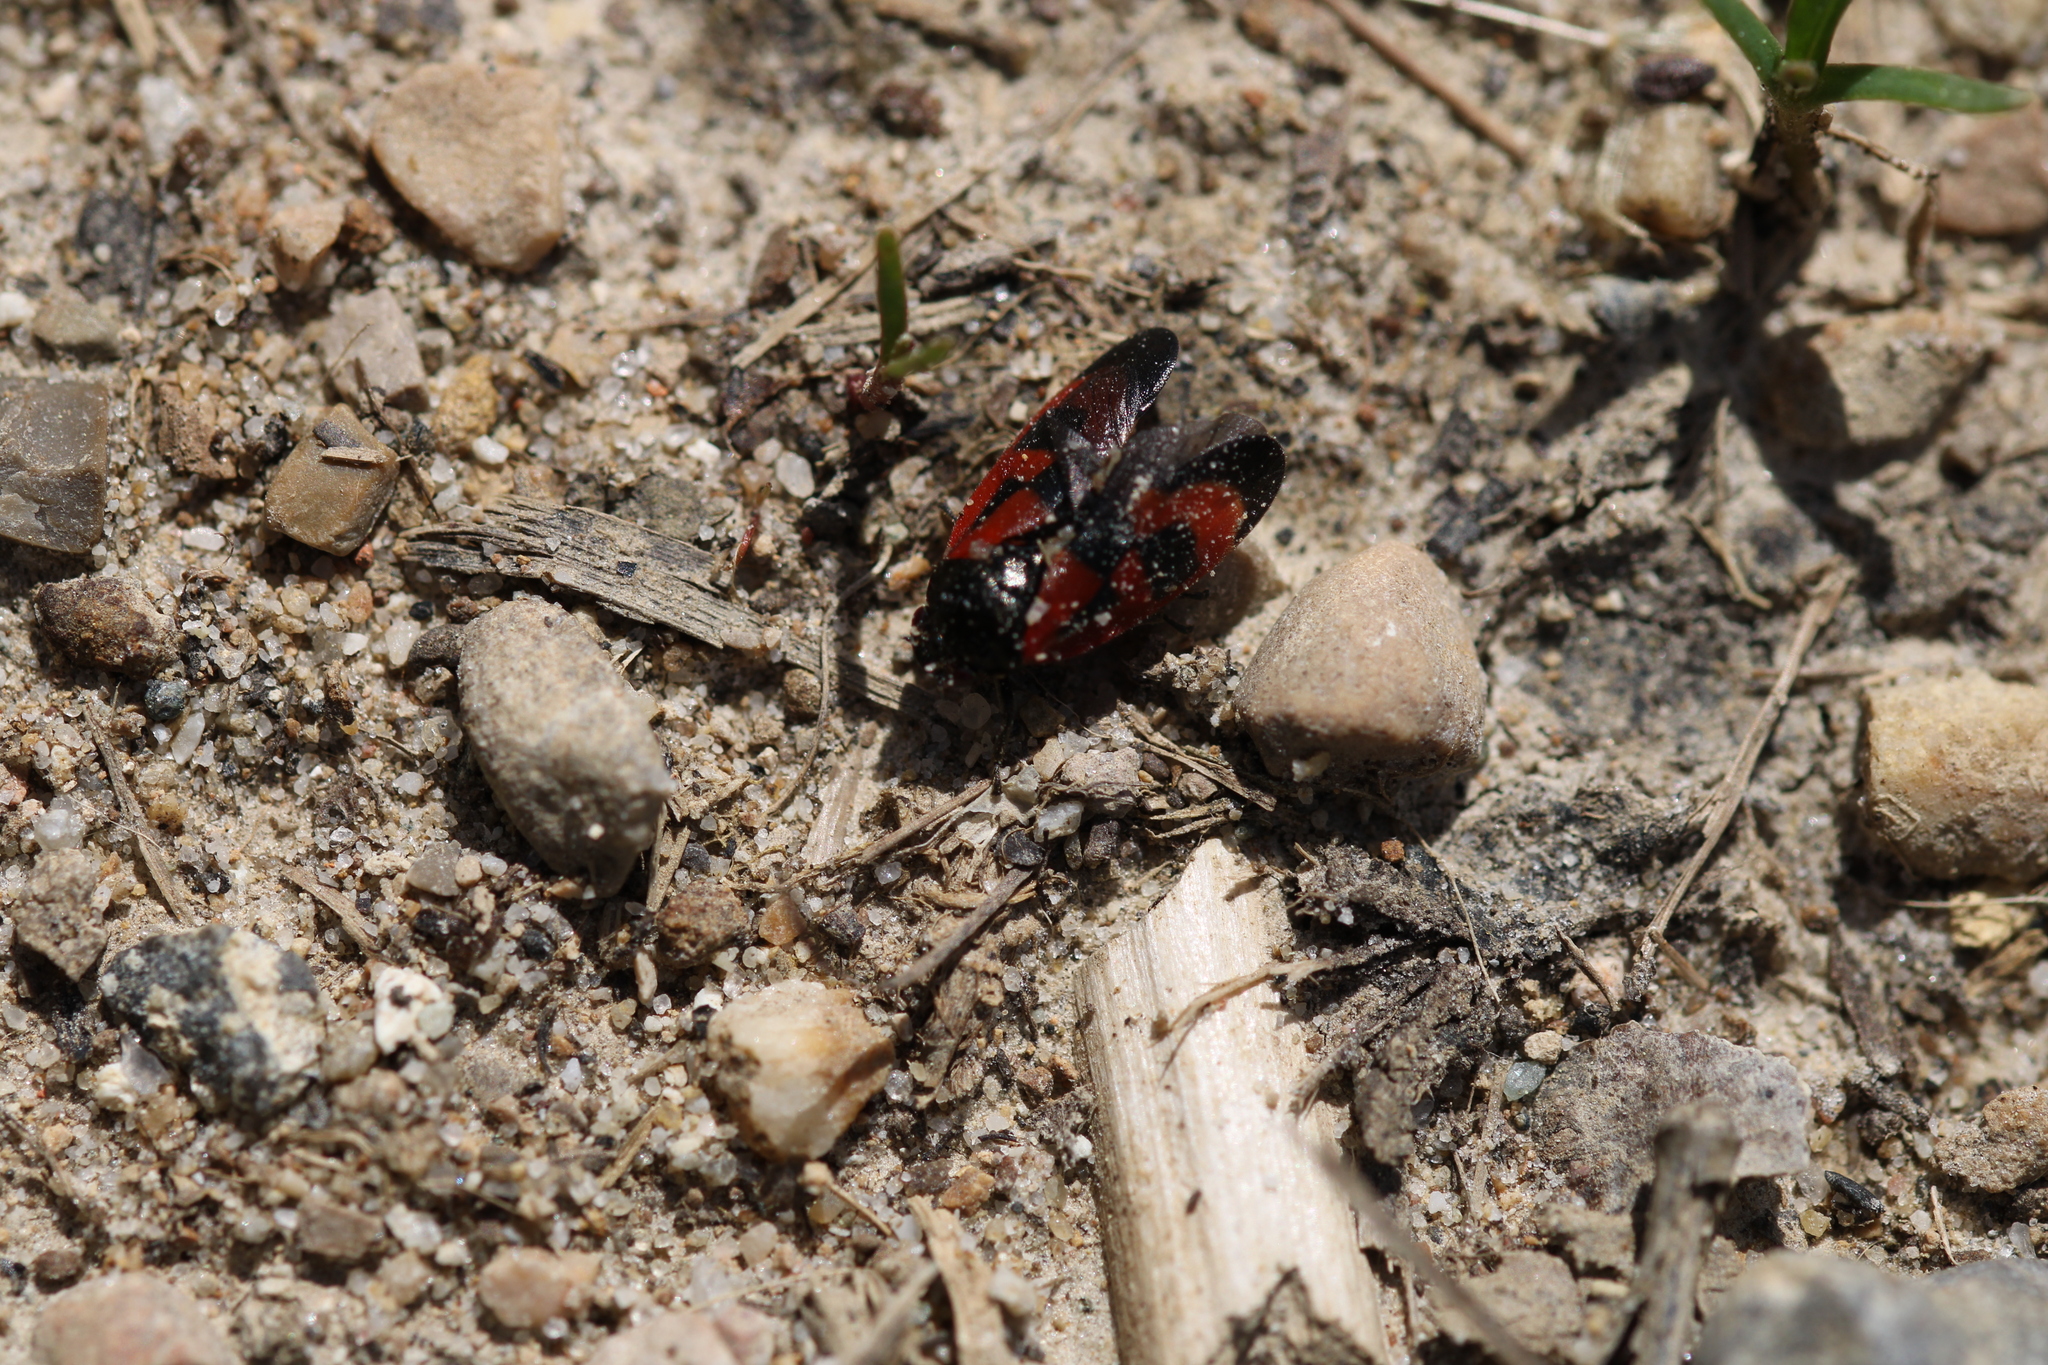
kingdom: Animalia
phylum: Arthropoda
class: Insecta
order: Hemiptera
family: Cercopidae
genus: Haematoloma
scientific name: Haematoloma dorsata
